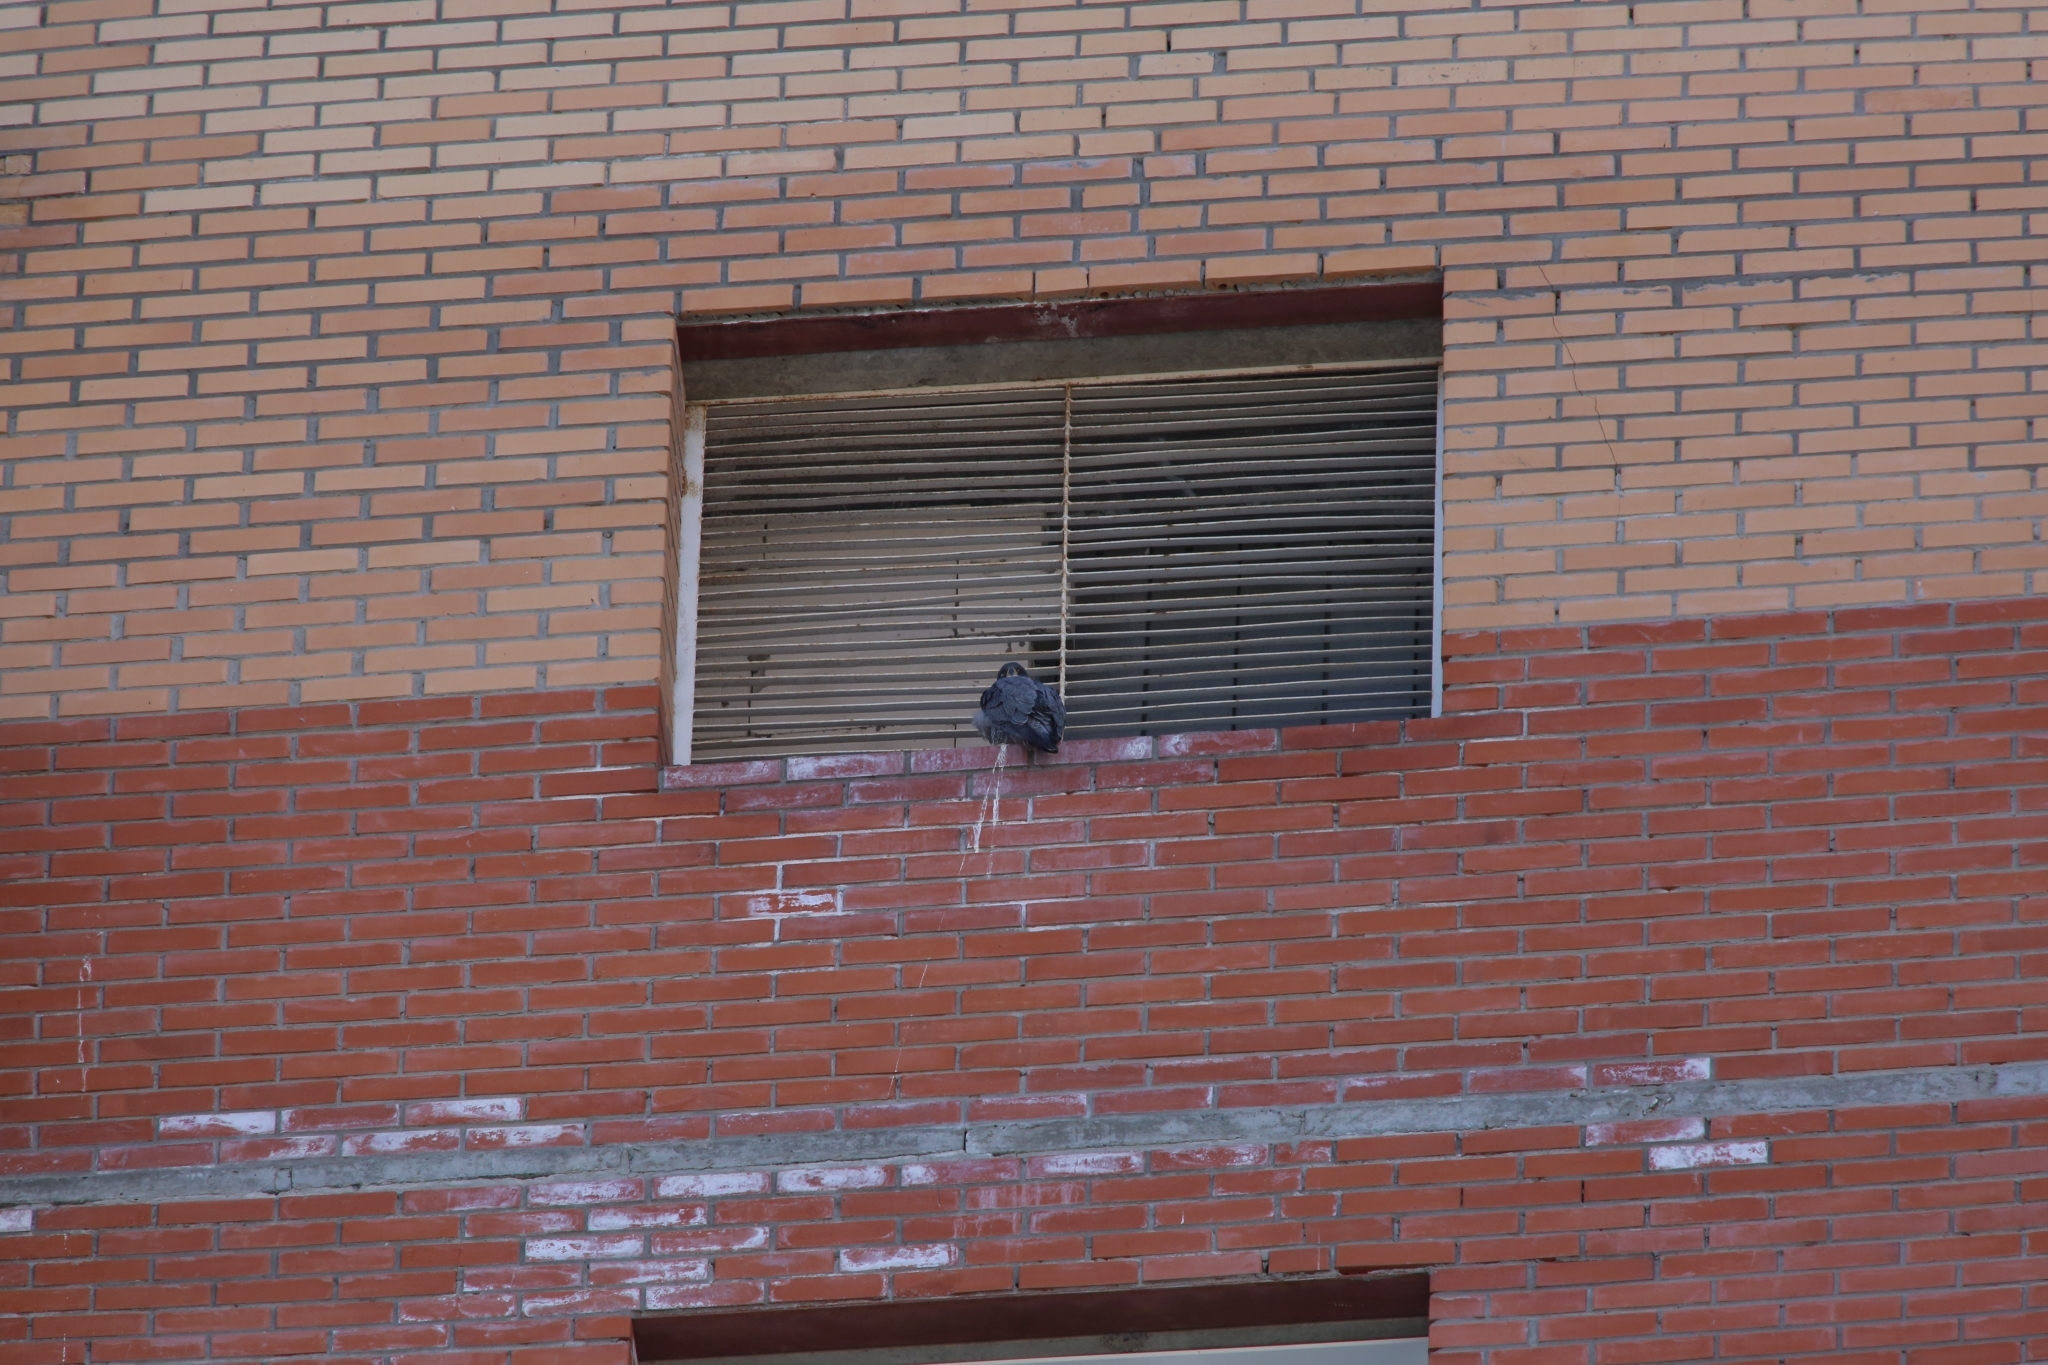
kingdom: Animalia
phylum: Chordata
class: Aves
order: Falconiformes
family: Falconidae
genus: Falco
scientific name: Falco peregrinus
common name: Peregrine falcon
